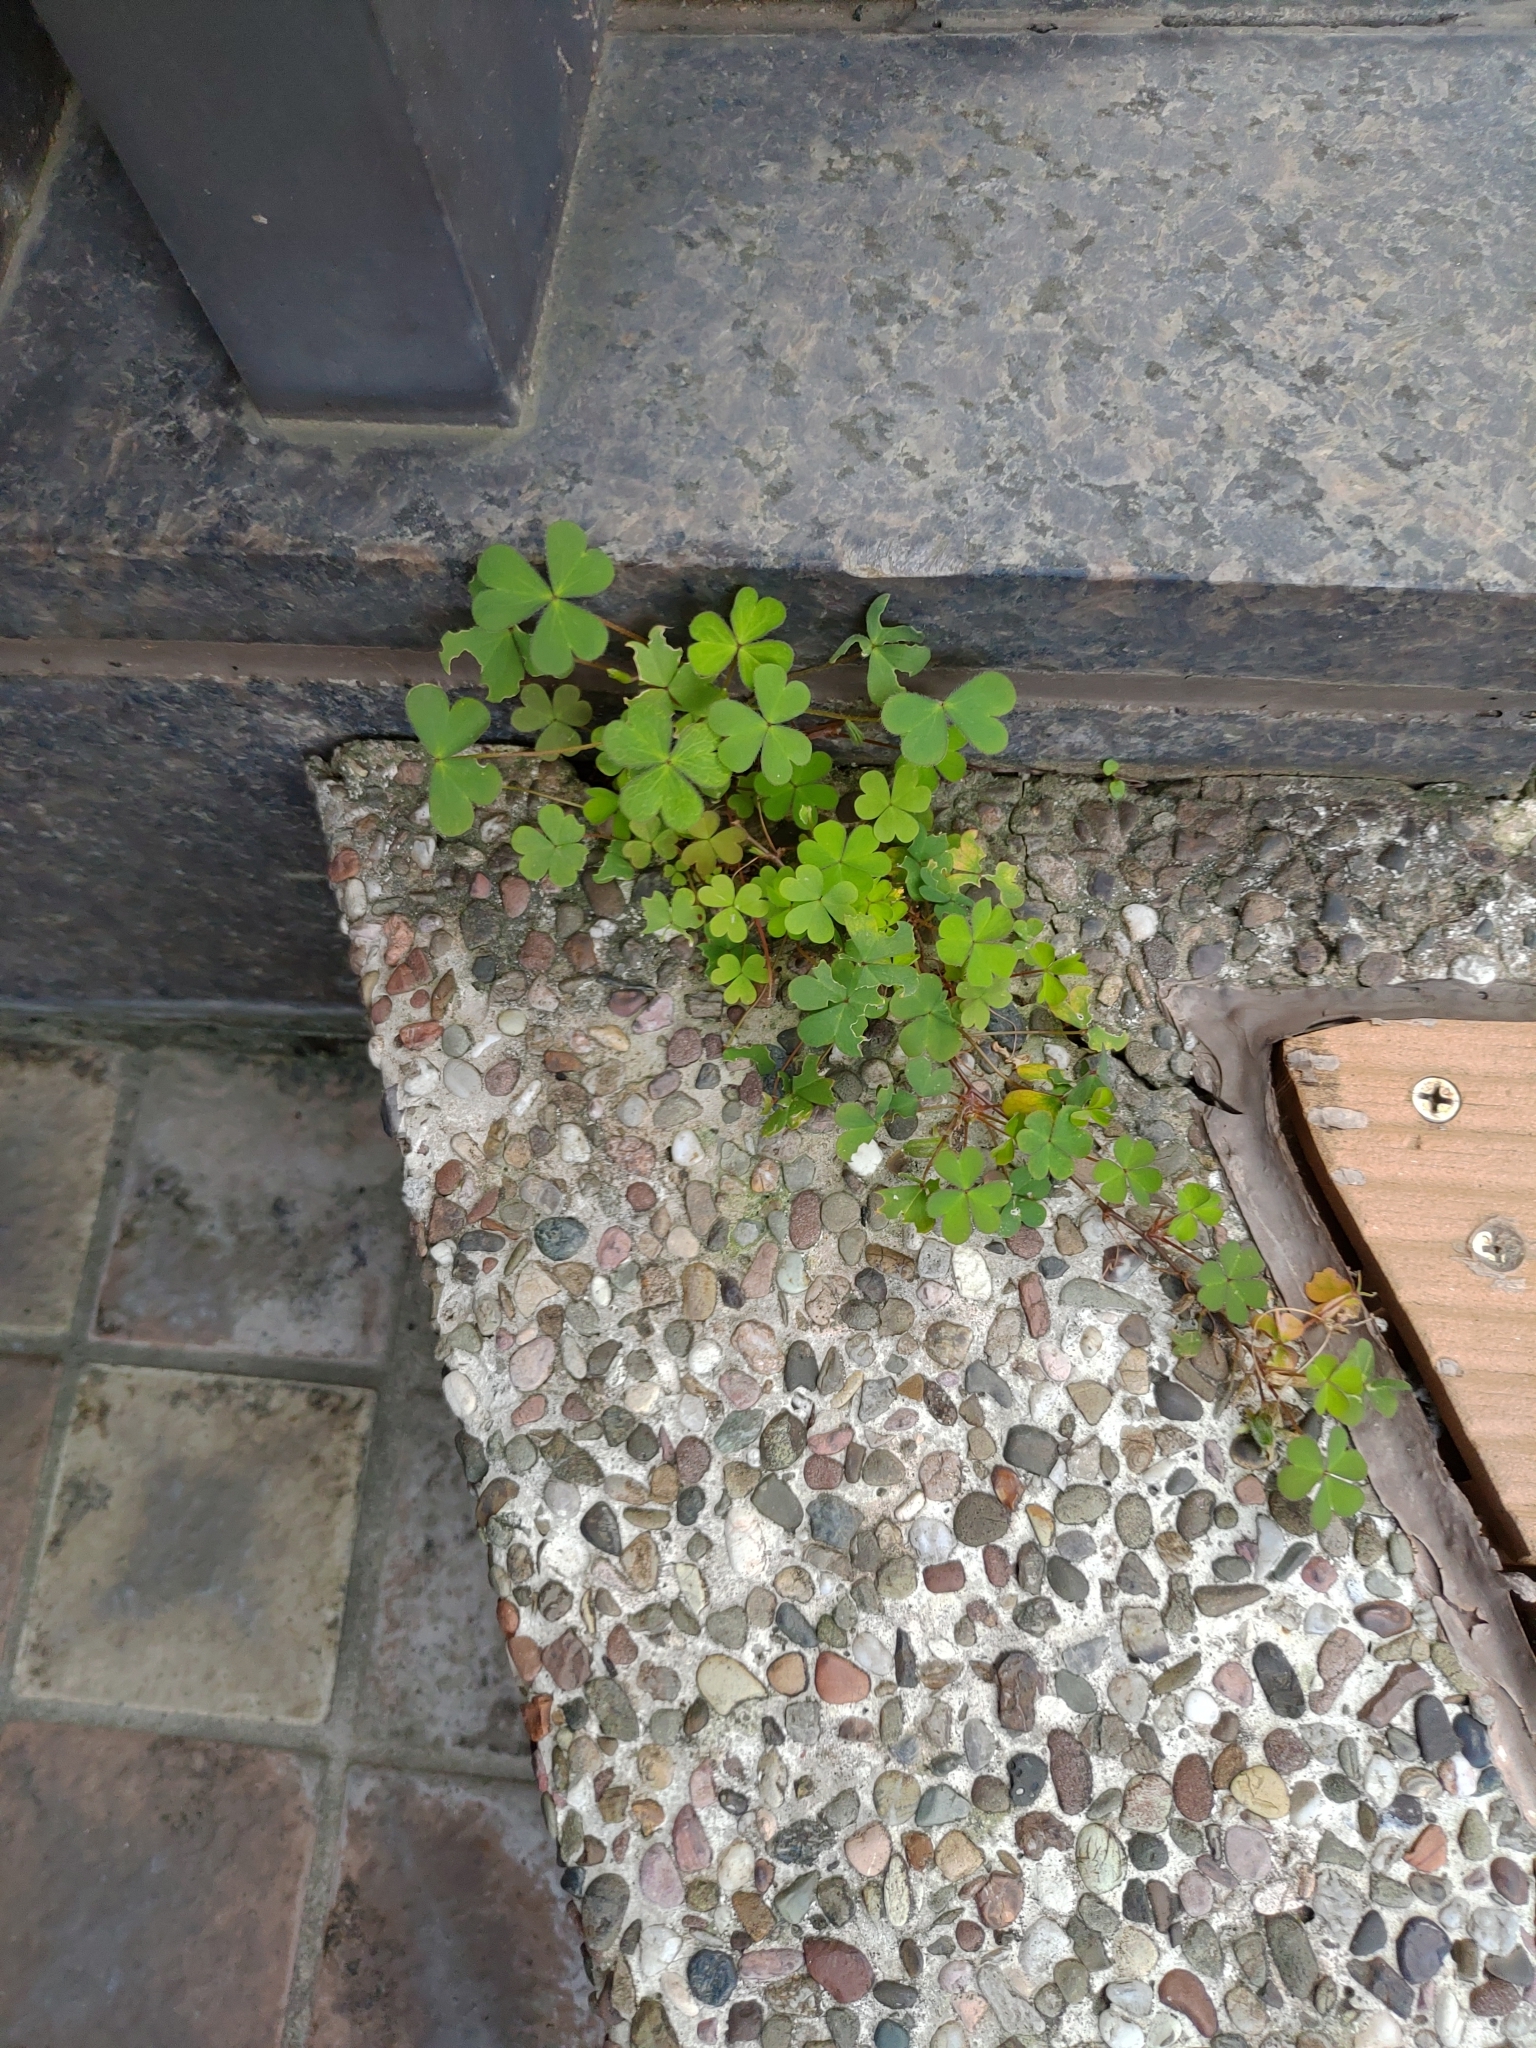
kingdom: Plantae
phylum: Tracheophyta
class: Magnoliopsida
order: Oxalidales
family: Oxalidaceae
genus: Oxalis
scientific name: Oxalis corniculata
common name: Procumbent yellow-sorrel
